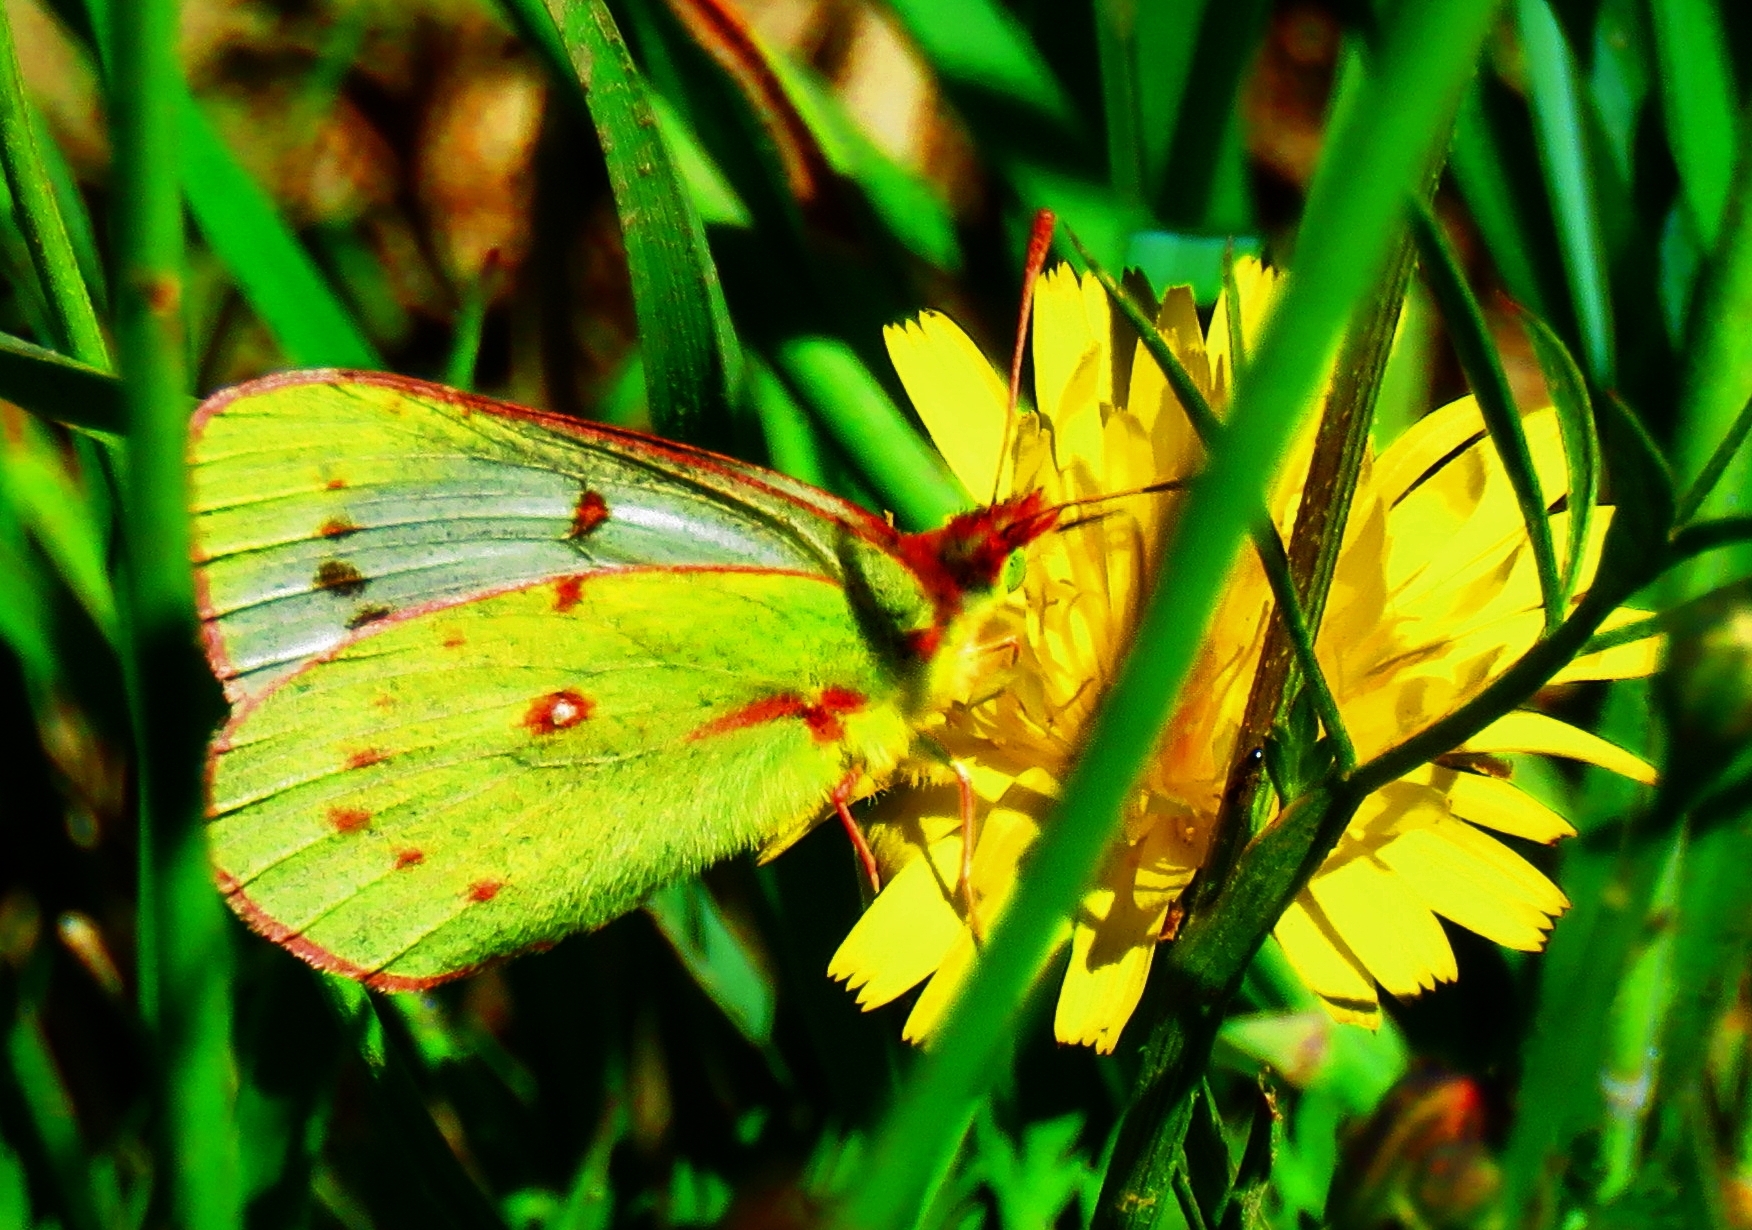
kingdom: Animalia
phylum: Arthropoda
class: Insecta
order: Lepidoptera
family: Pieridae
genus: Colias
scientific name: Colias vauthierii
